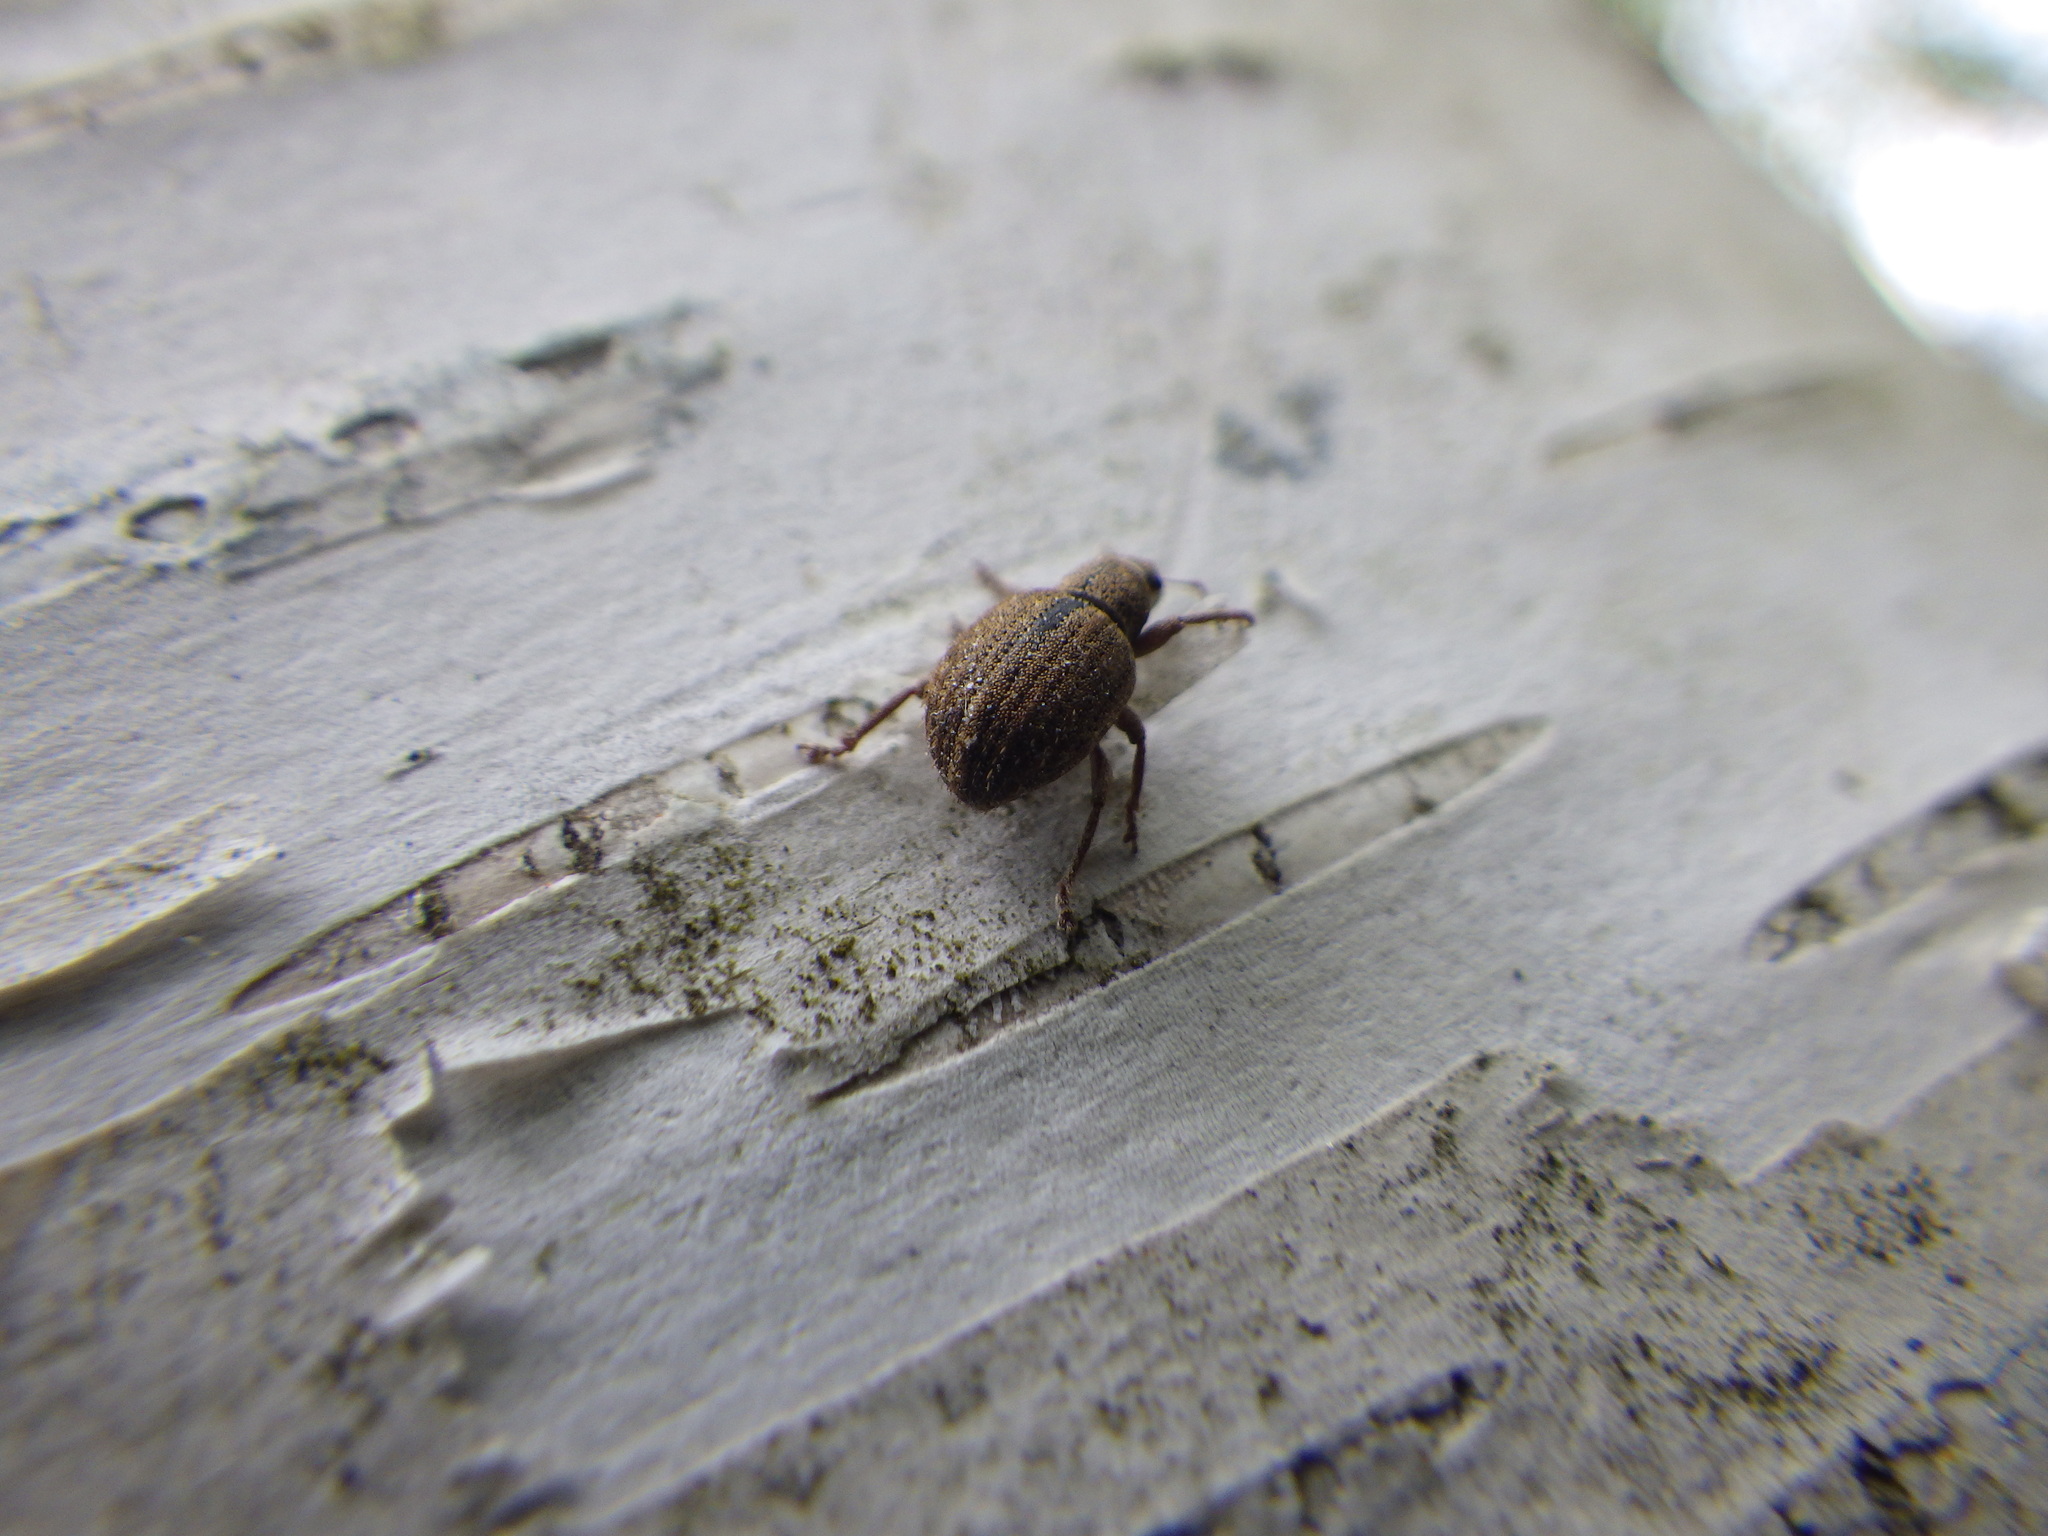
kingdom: Animalia
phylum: Arthropoda
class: Insecta
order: Coleoptera
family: Curculionidae
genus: Strophosoma
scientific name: Strophosoma melanogrammum
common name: Weevil
